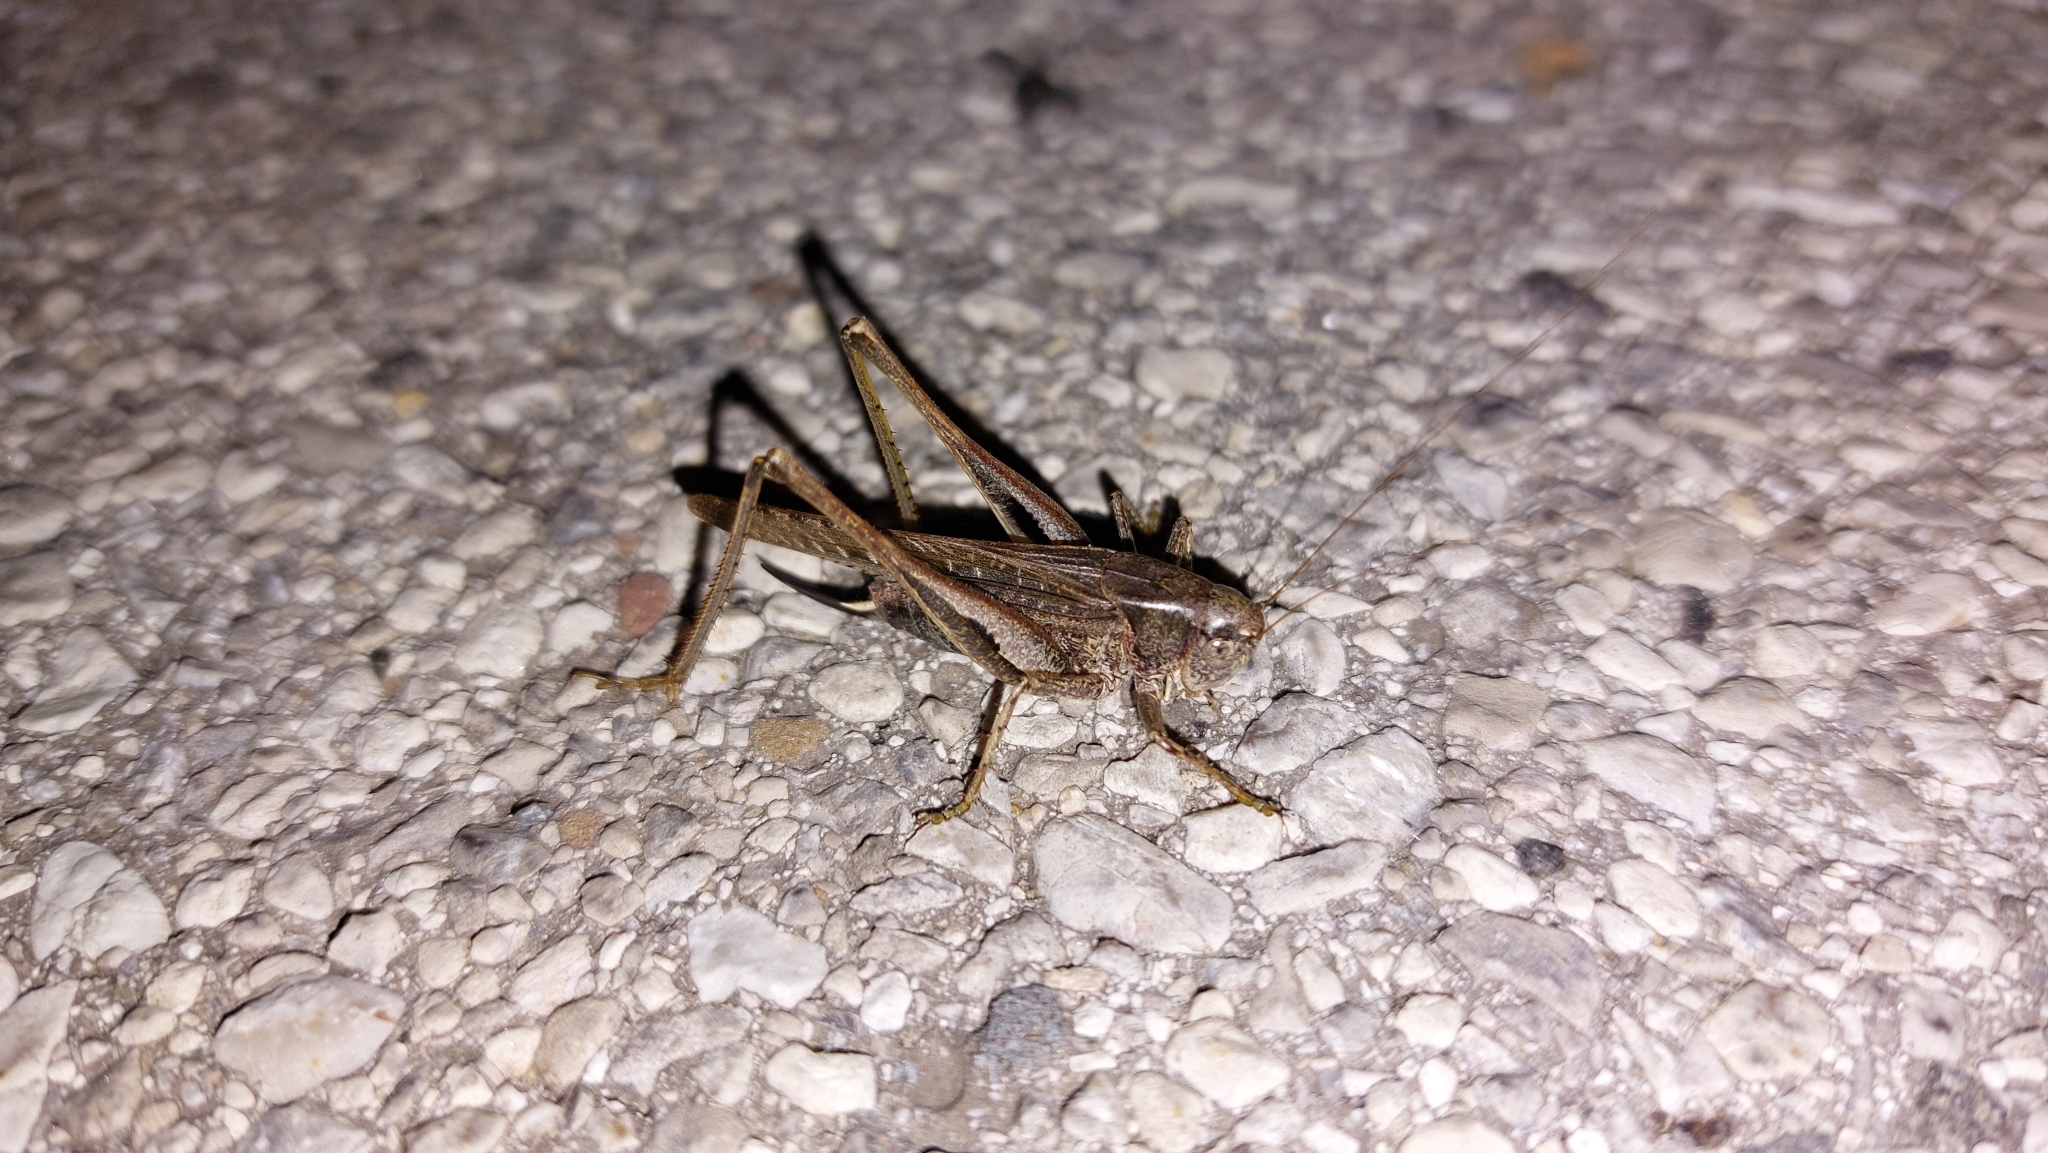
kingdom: Animalia
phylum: Arthropoda
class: Insecta
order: Orthoptera
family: Tettigoniidae
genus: Platycleis
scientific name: Platycleis grisea
